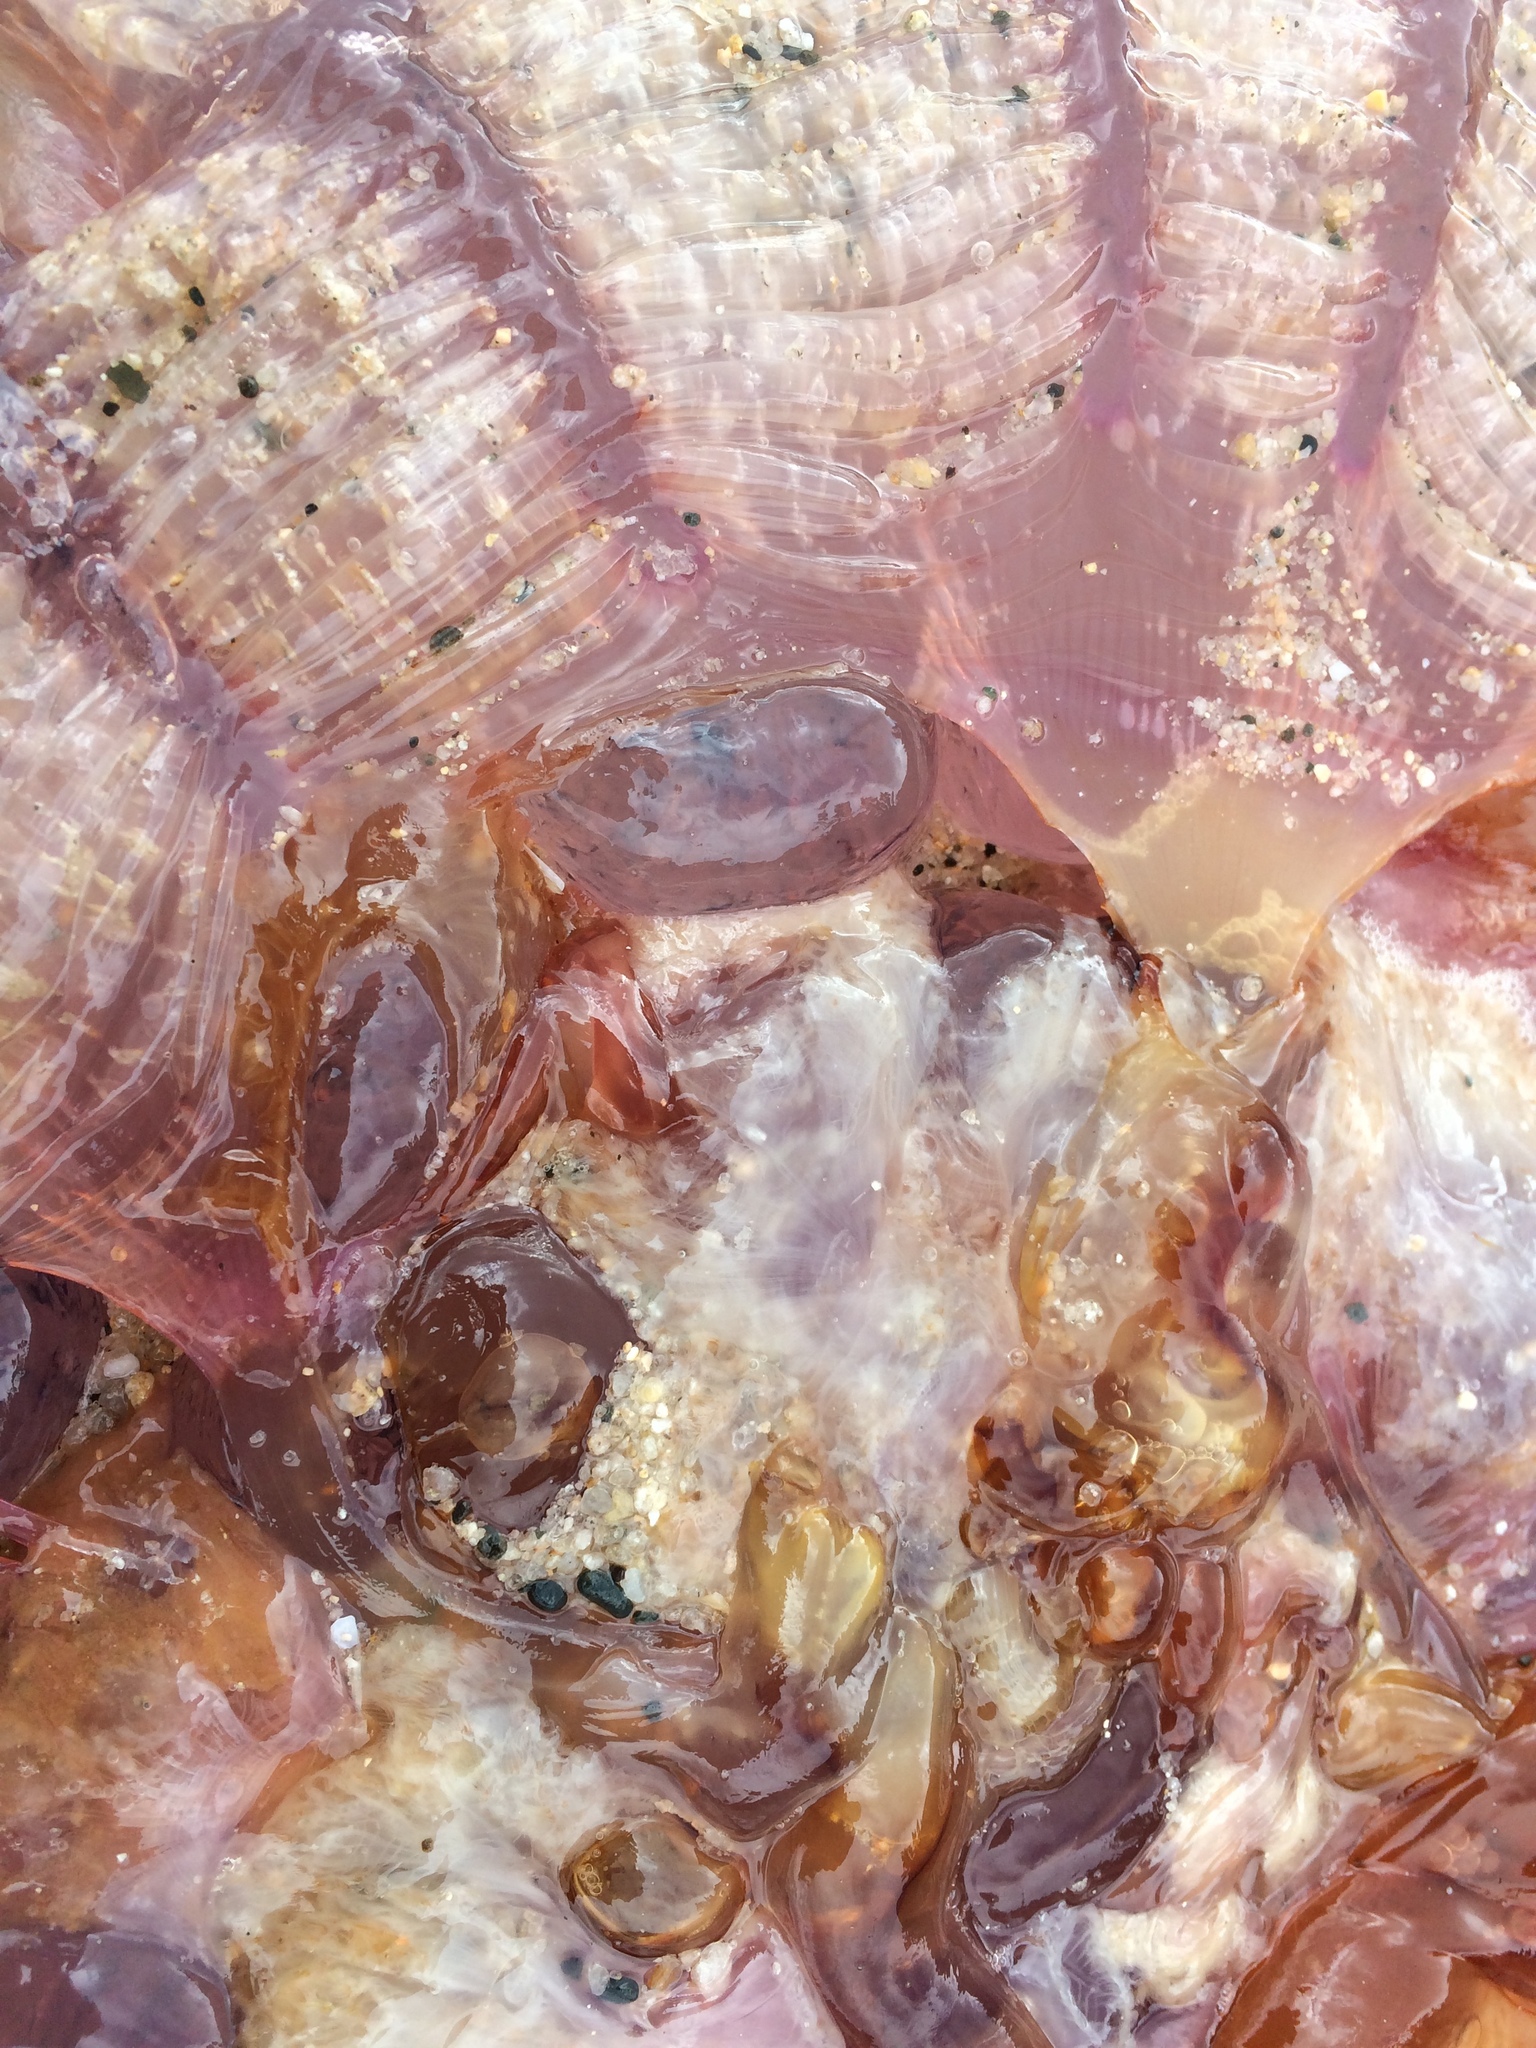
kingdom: Animalia
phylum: Cnidaria
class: Scyphozoa
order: Semaeostomeae
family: Cyaneidae
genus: Cyanea
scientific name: Cyanea
